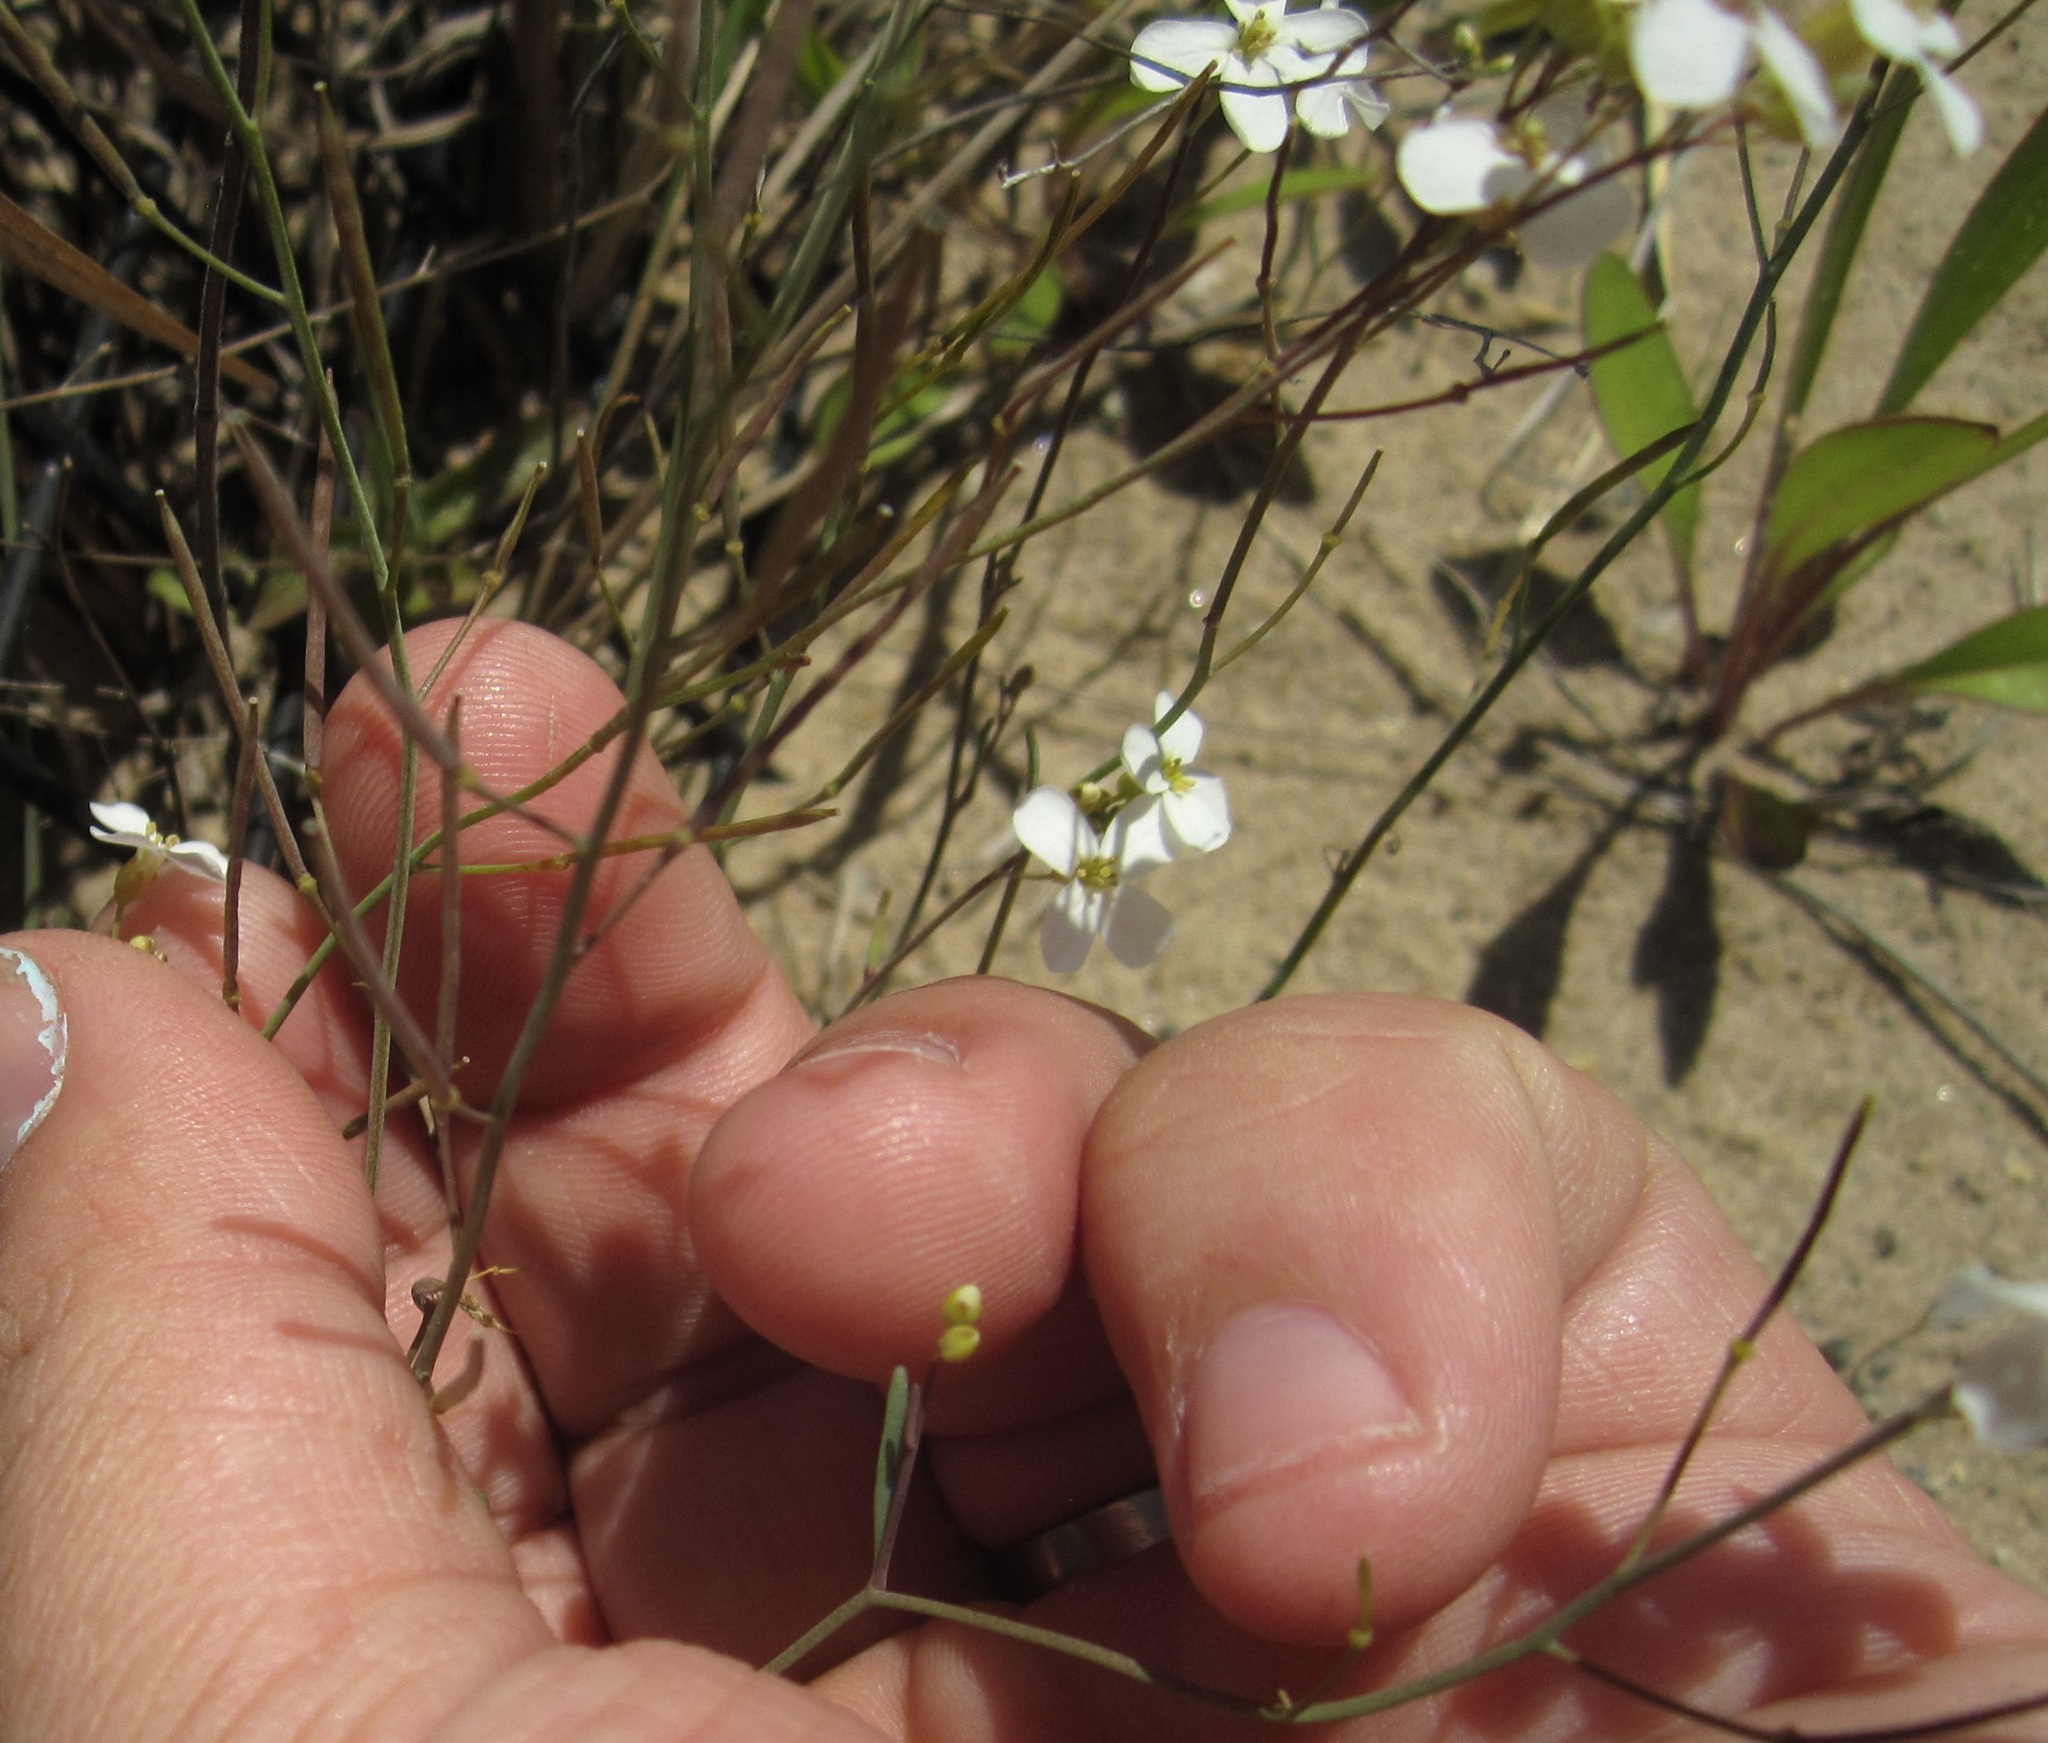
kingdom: Plantae
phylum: Tracheophyta
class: Magnoliopsida
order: Brassicales
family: Brassicaceae
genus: Arabidopsis
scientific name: Arabidopsis lyrata
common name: Lyrate rockcress
